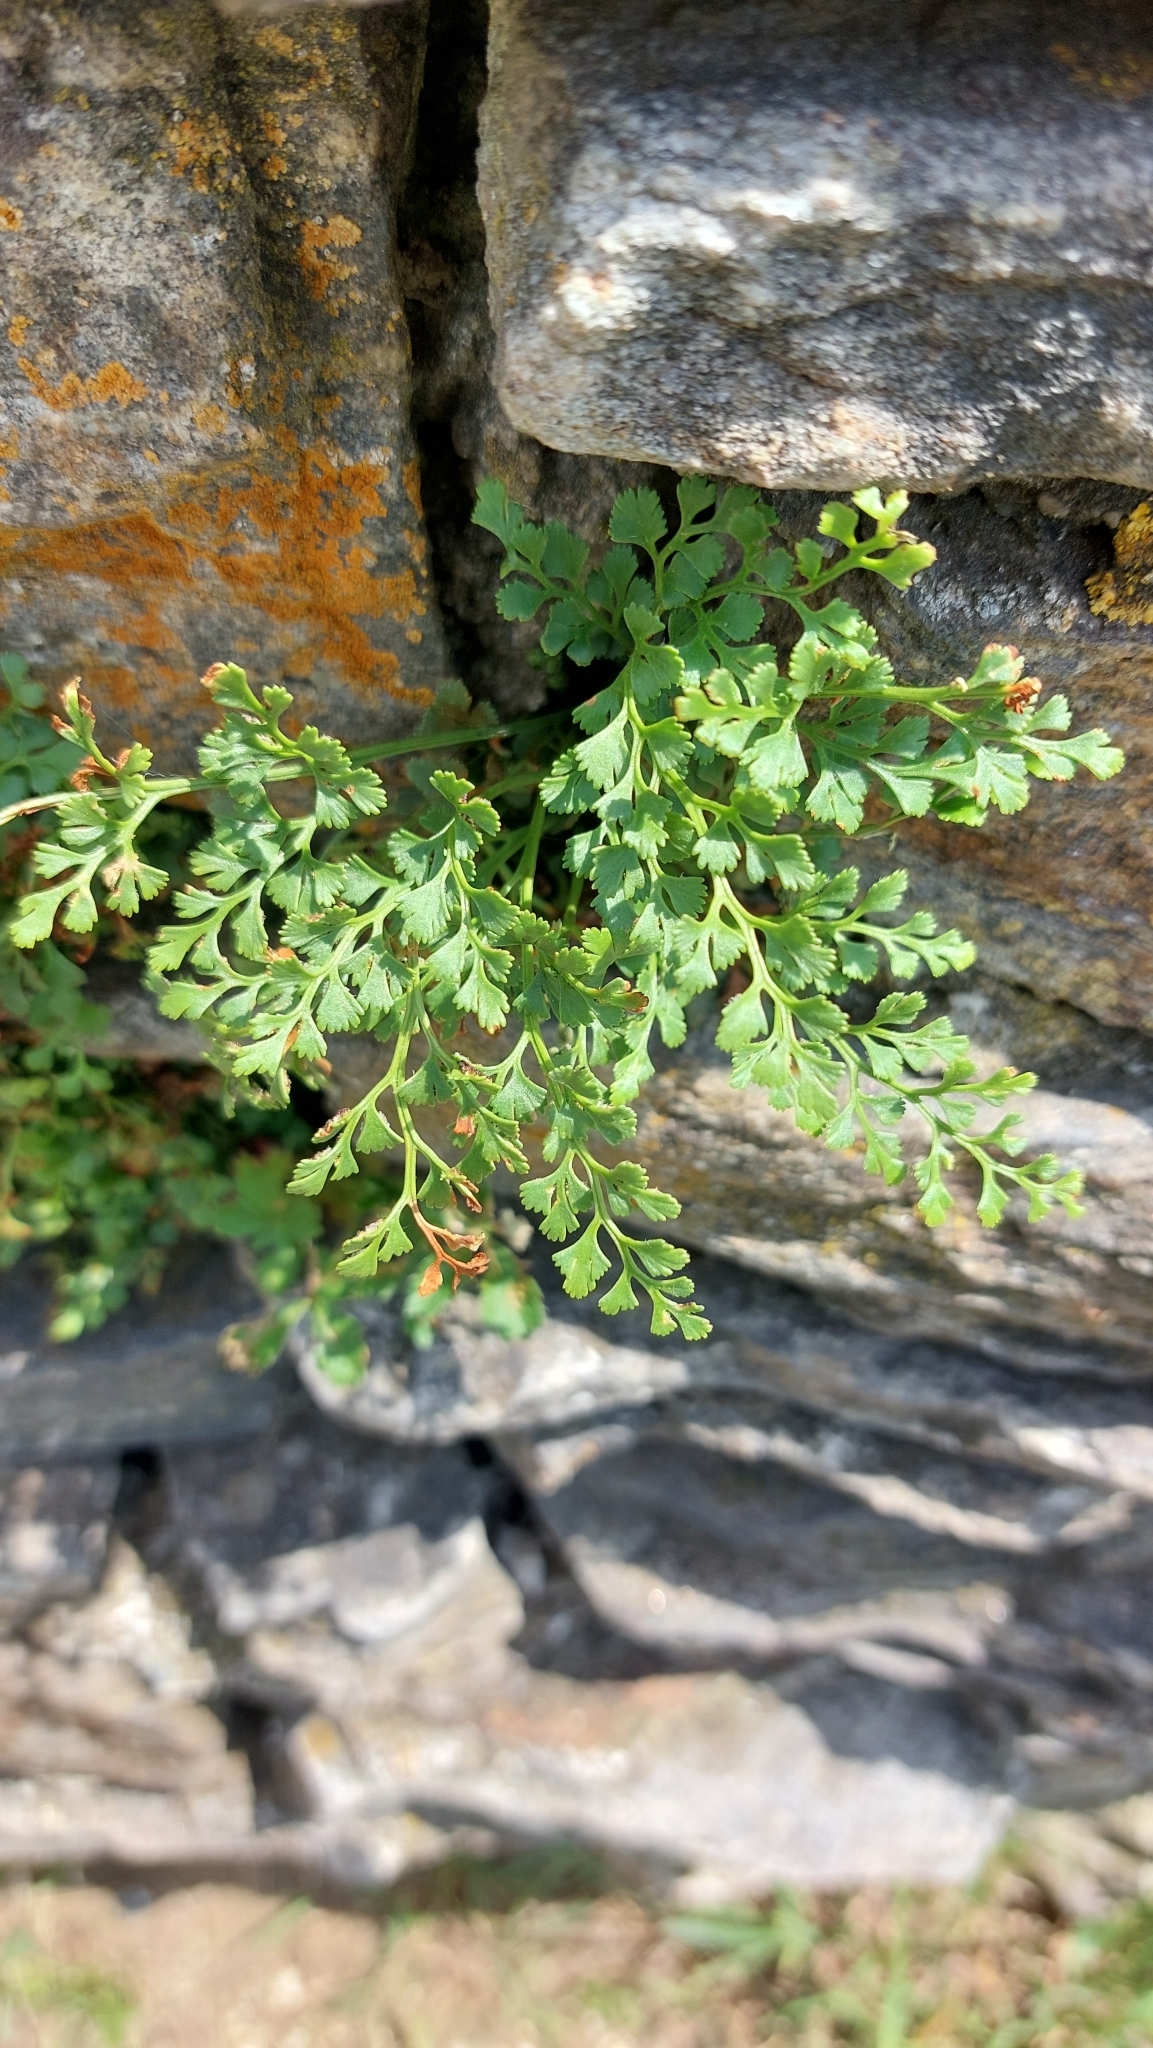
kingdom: Plantae
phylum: Tracheophyta
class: Polypodiopsida
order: Polypodiales
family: Aspleniaceae
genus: Asplenium
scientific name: Asplenium ruta-muraria
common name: Wall-rue
